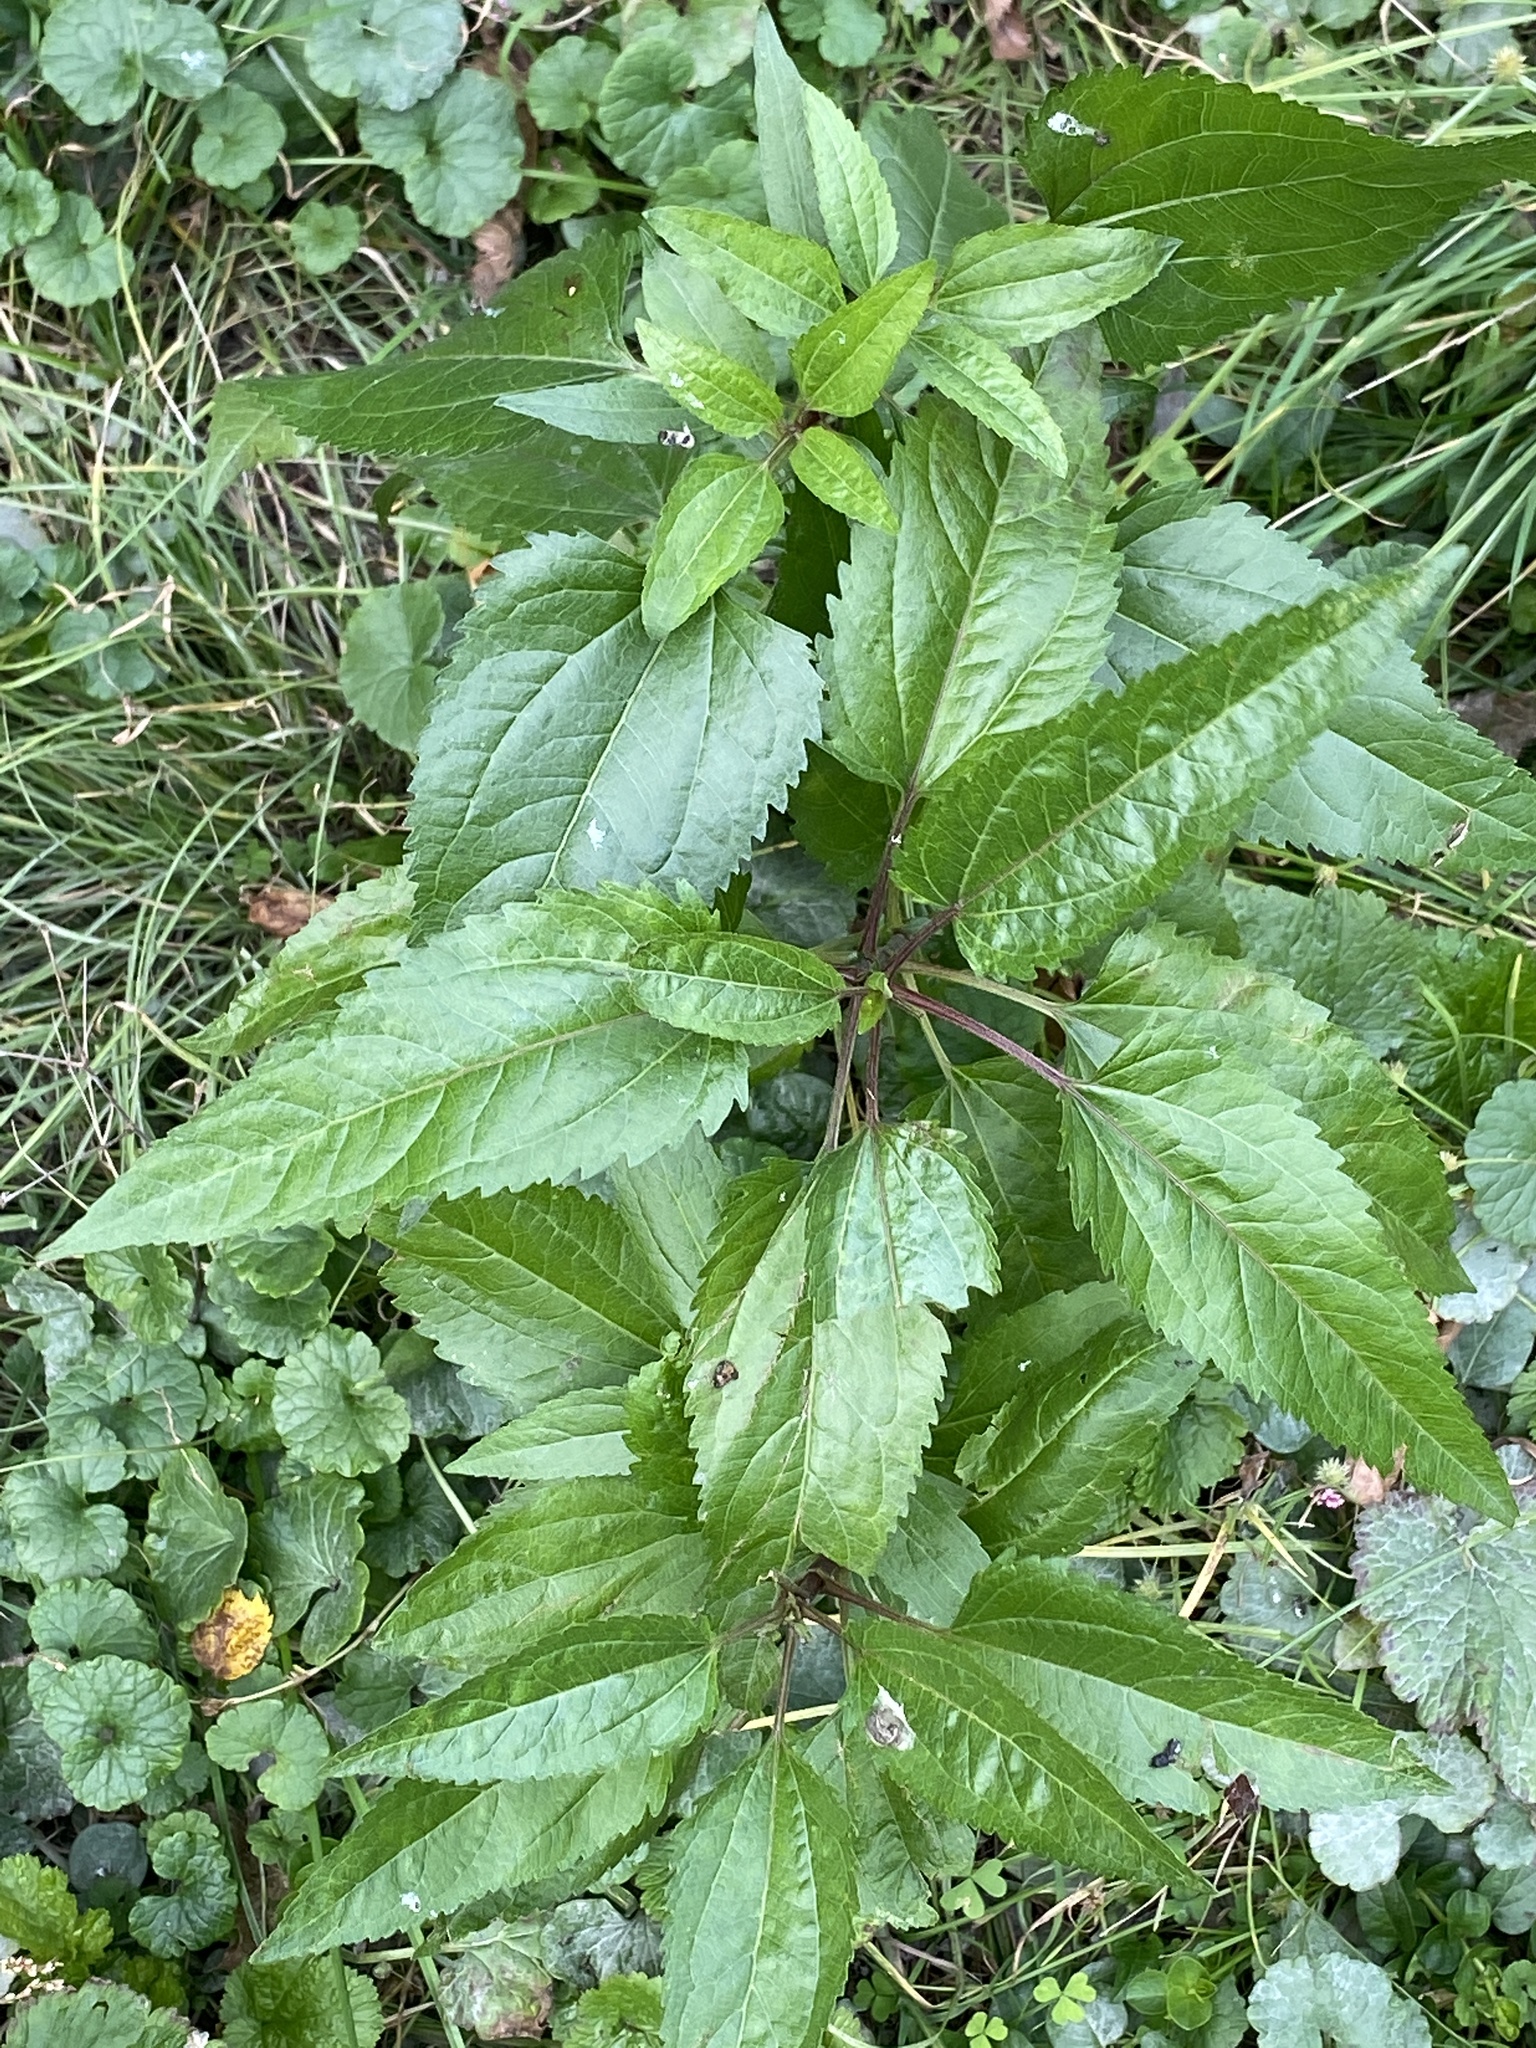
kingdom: Plantae
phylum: Tracheophyta
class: Magnoliopsida
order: Asterales
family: Asteraceae
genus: Eupatorium
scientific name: Eupatorium serotinum
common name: Late boneset
